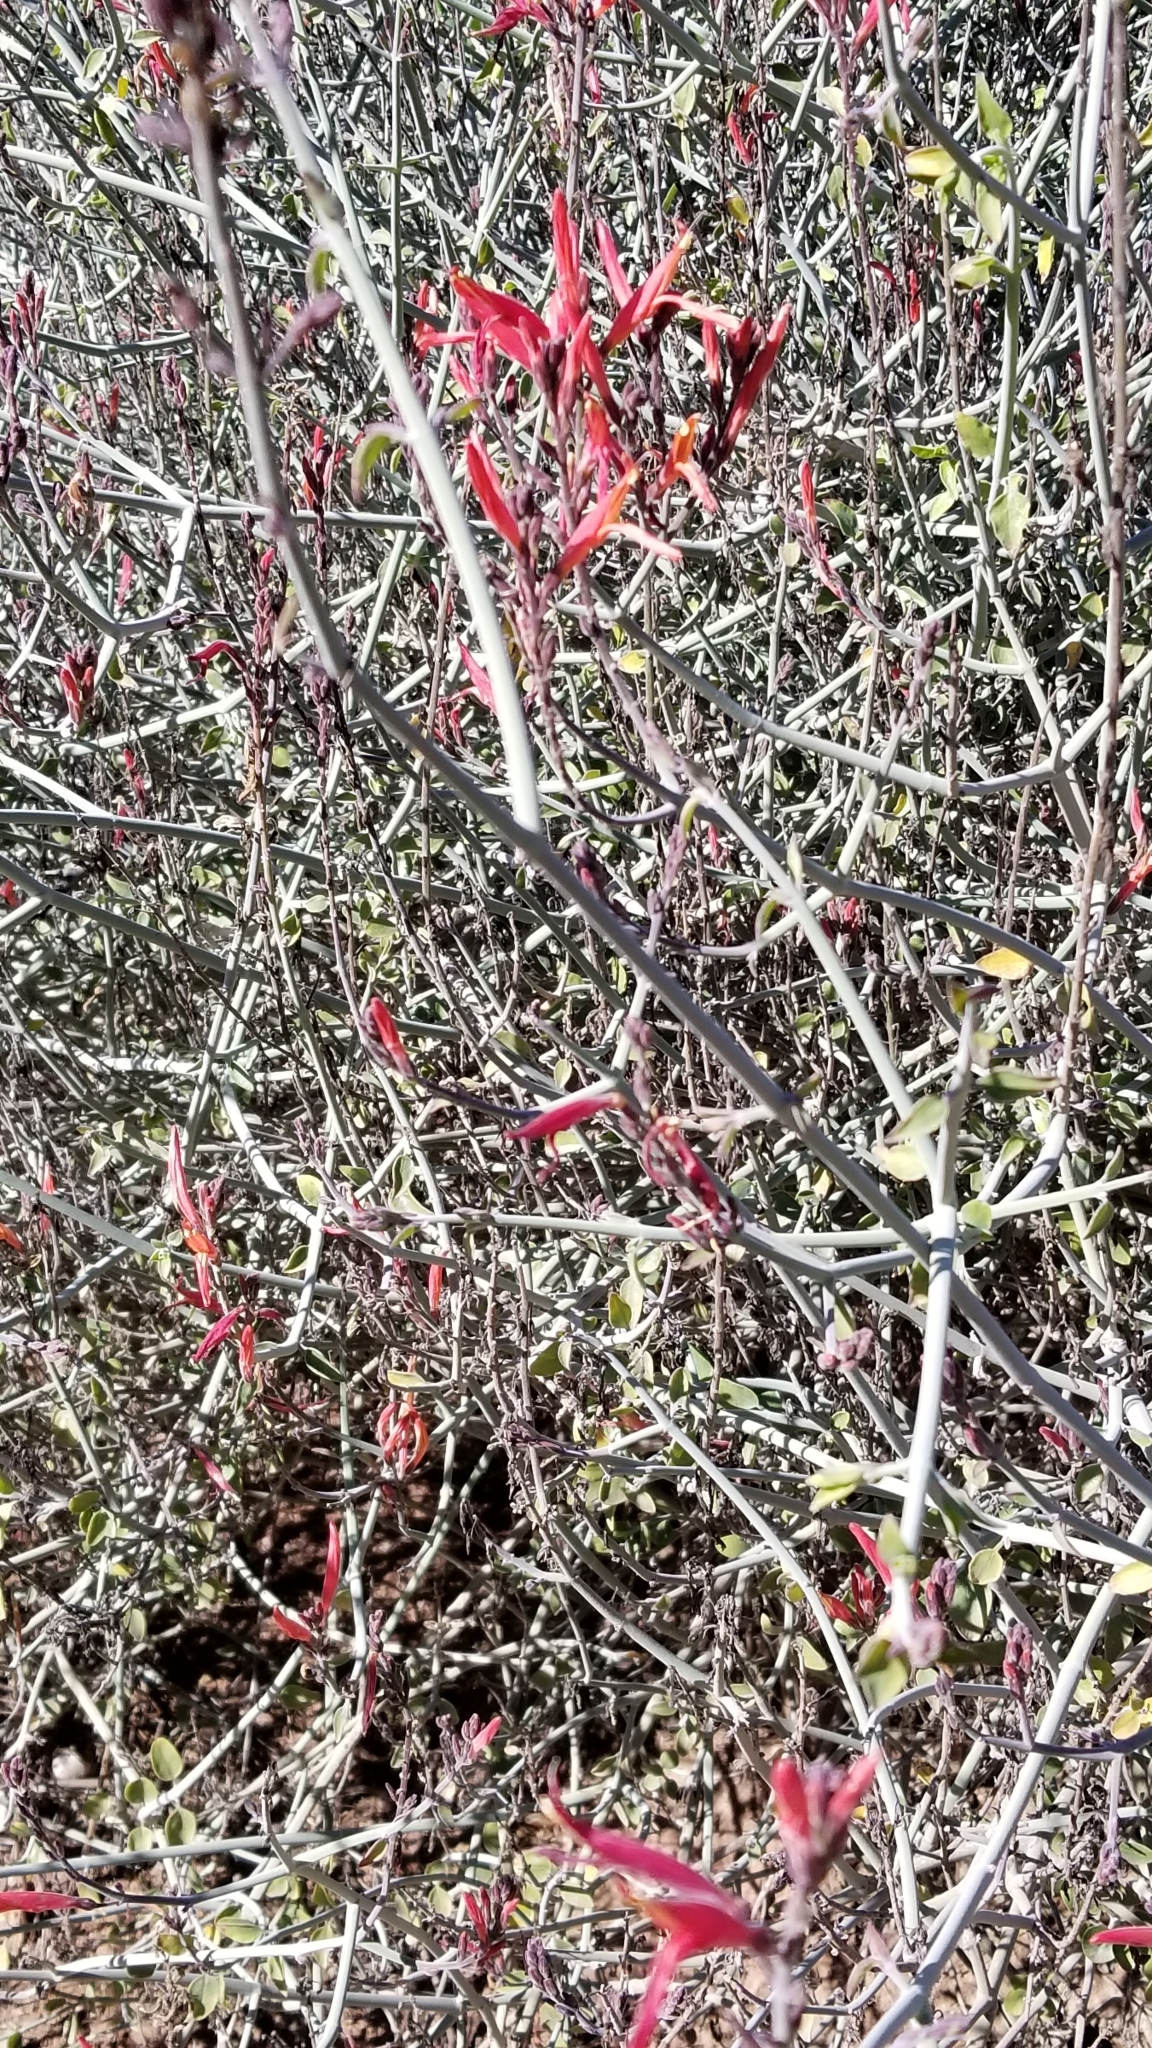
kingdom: Plantae
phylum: Tracheophyta
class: Magnoliopsida
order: Lamiales
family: Acanthaceae
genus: Justicia
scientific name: Justicia californica
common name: Chuparosa-honeysuckle
